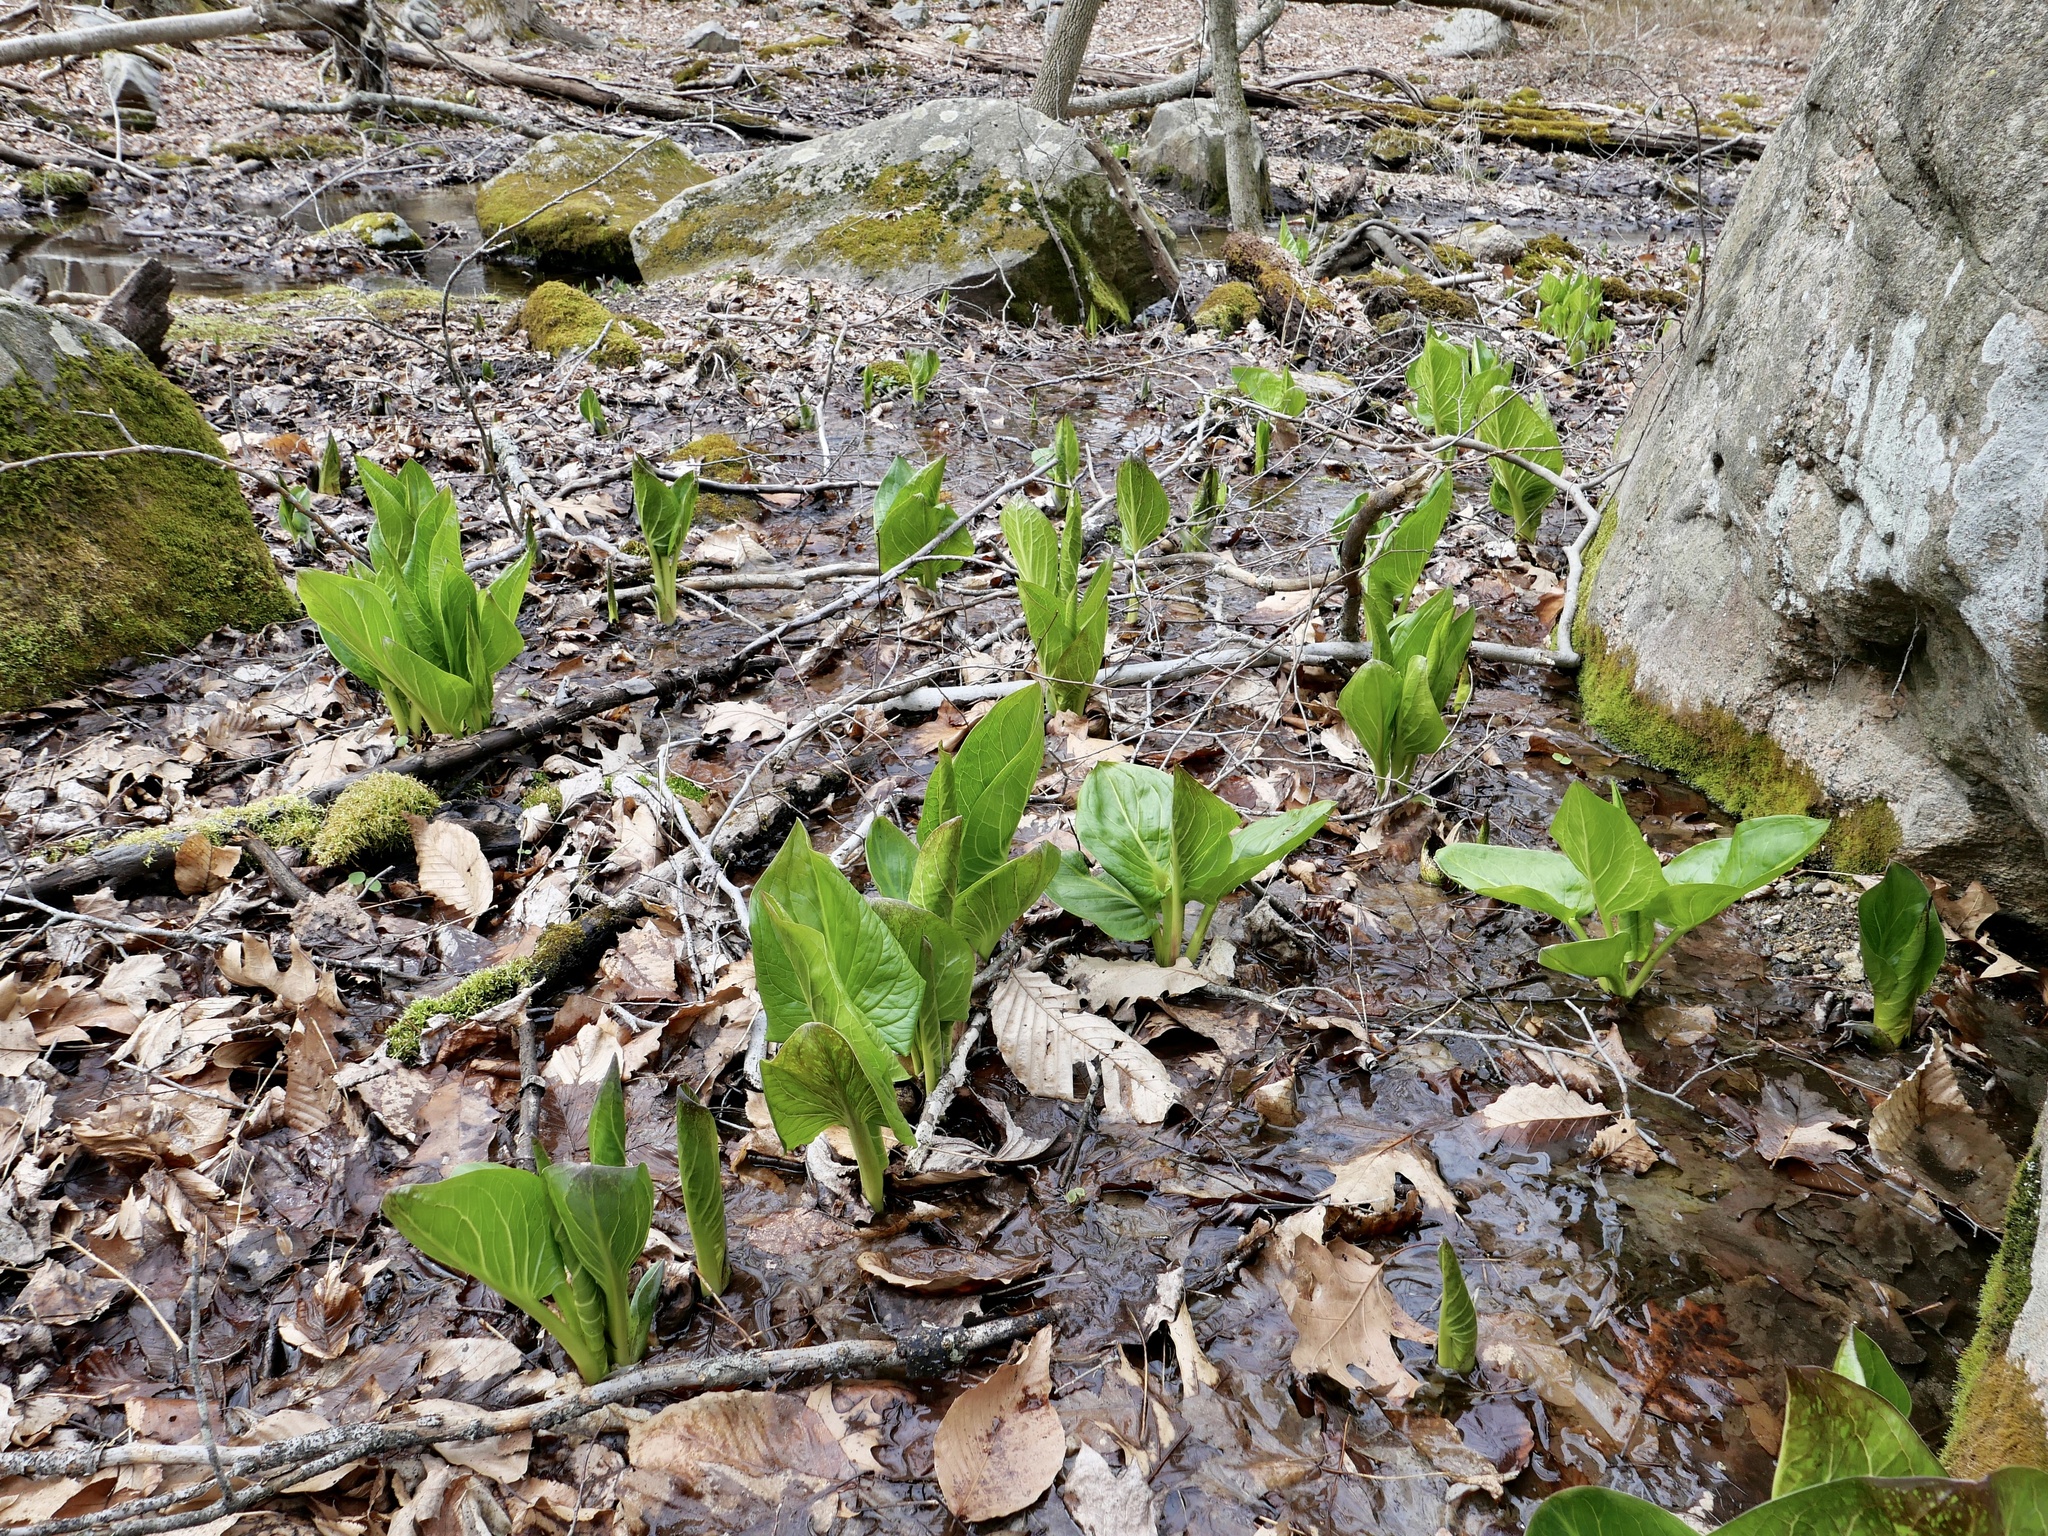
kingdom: Plantae
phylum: Tracheophyta
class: Liliopsida
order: Alismatales
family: Araceae
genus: Symplocarpus
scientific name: Symplocarpus foetidus
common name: Eastern skunk cabbage
